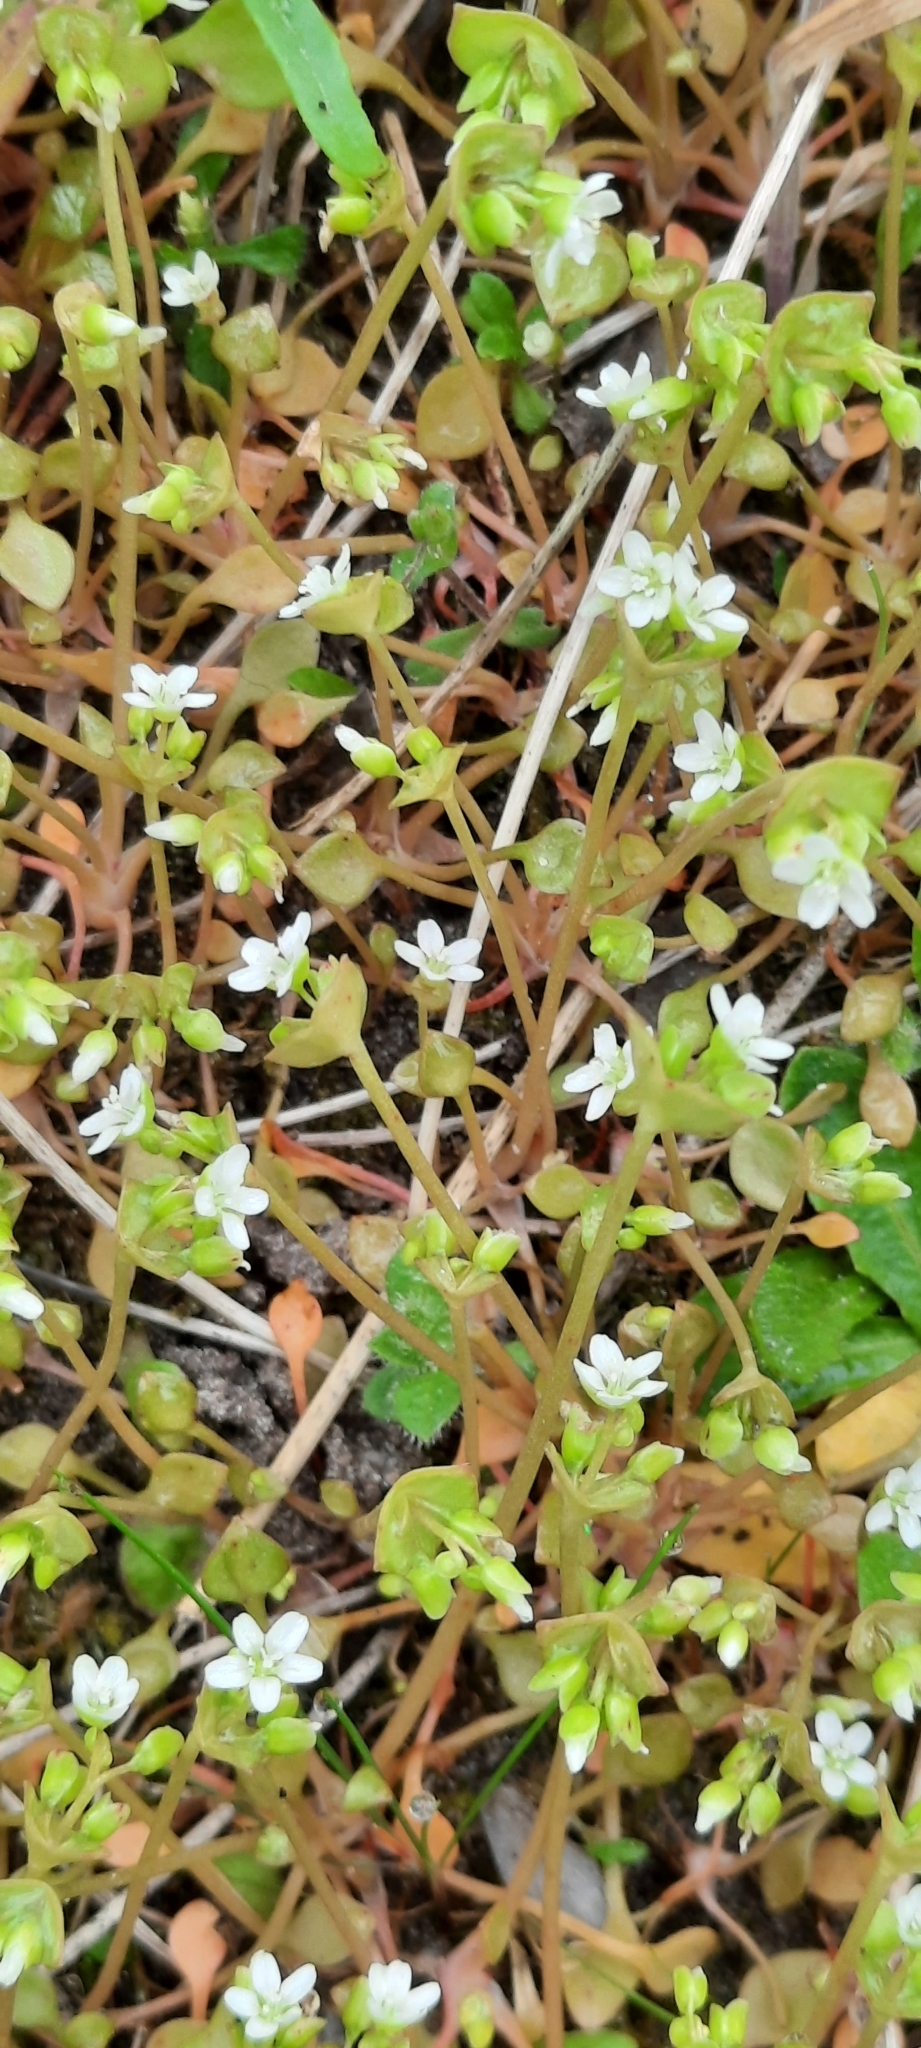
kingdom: Plantae
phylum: Tracheophyta
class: Magnoliopsida
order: Caryophyllales
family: Montiaceae
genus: Claytonia
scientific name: Claytonia perfoliata
